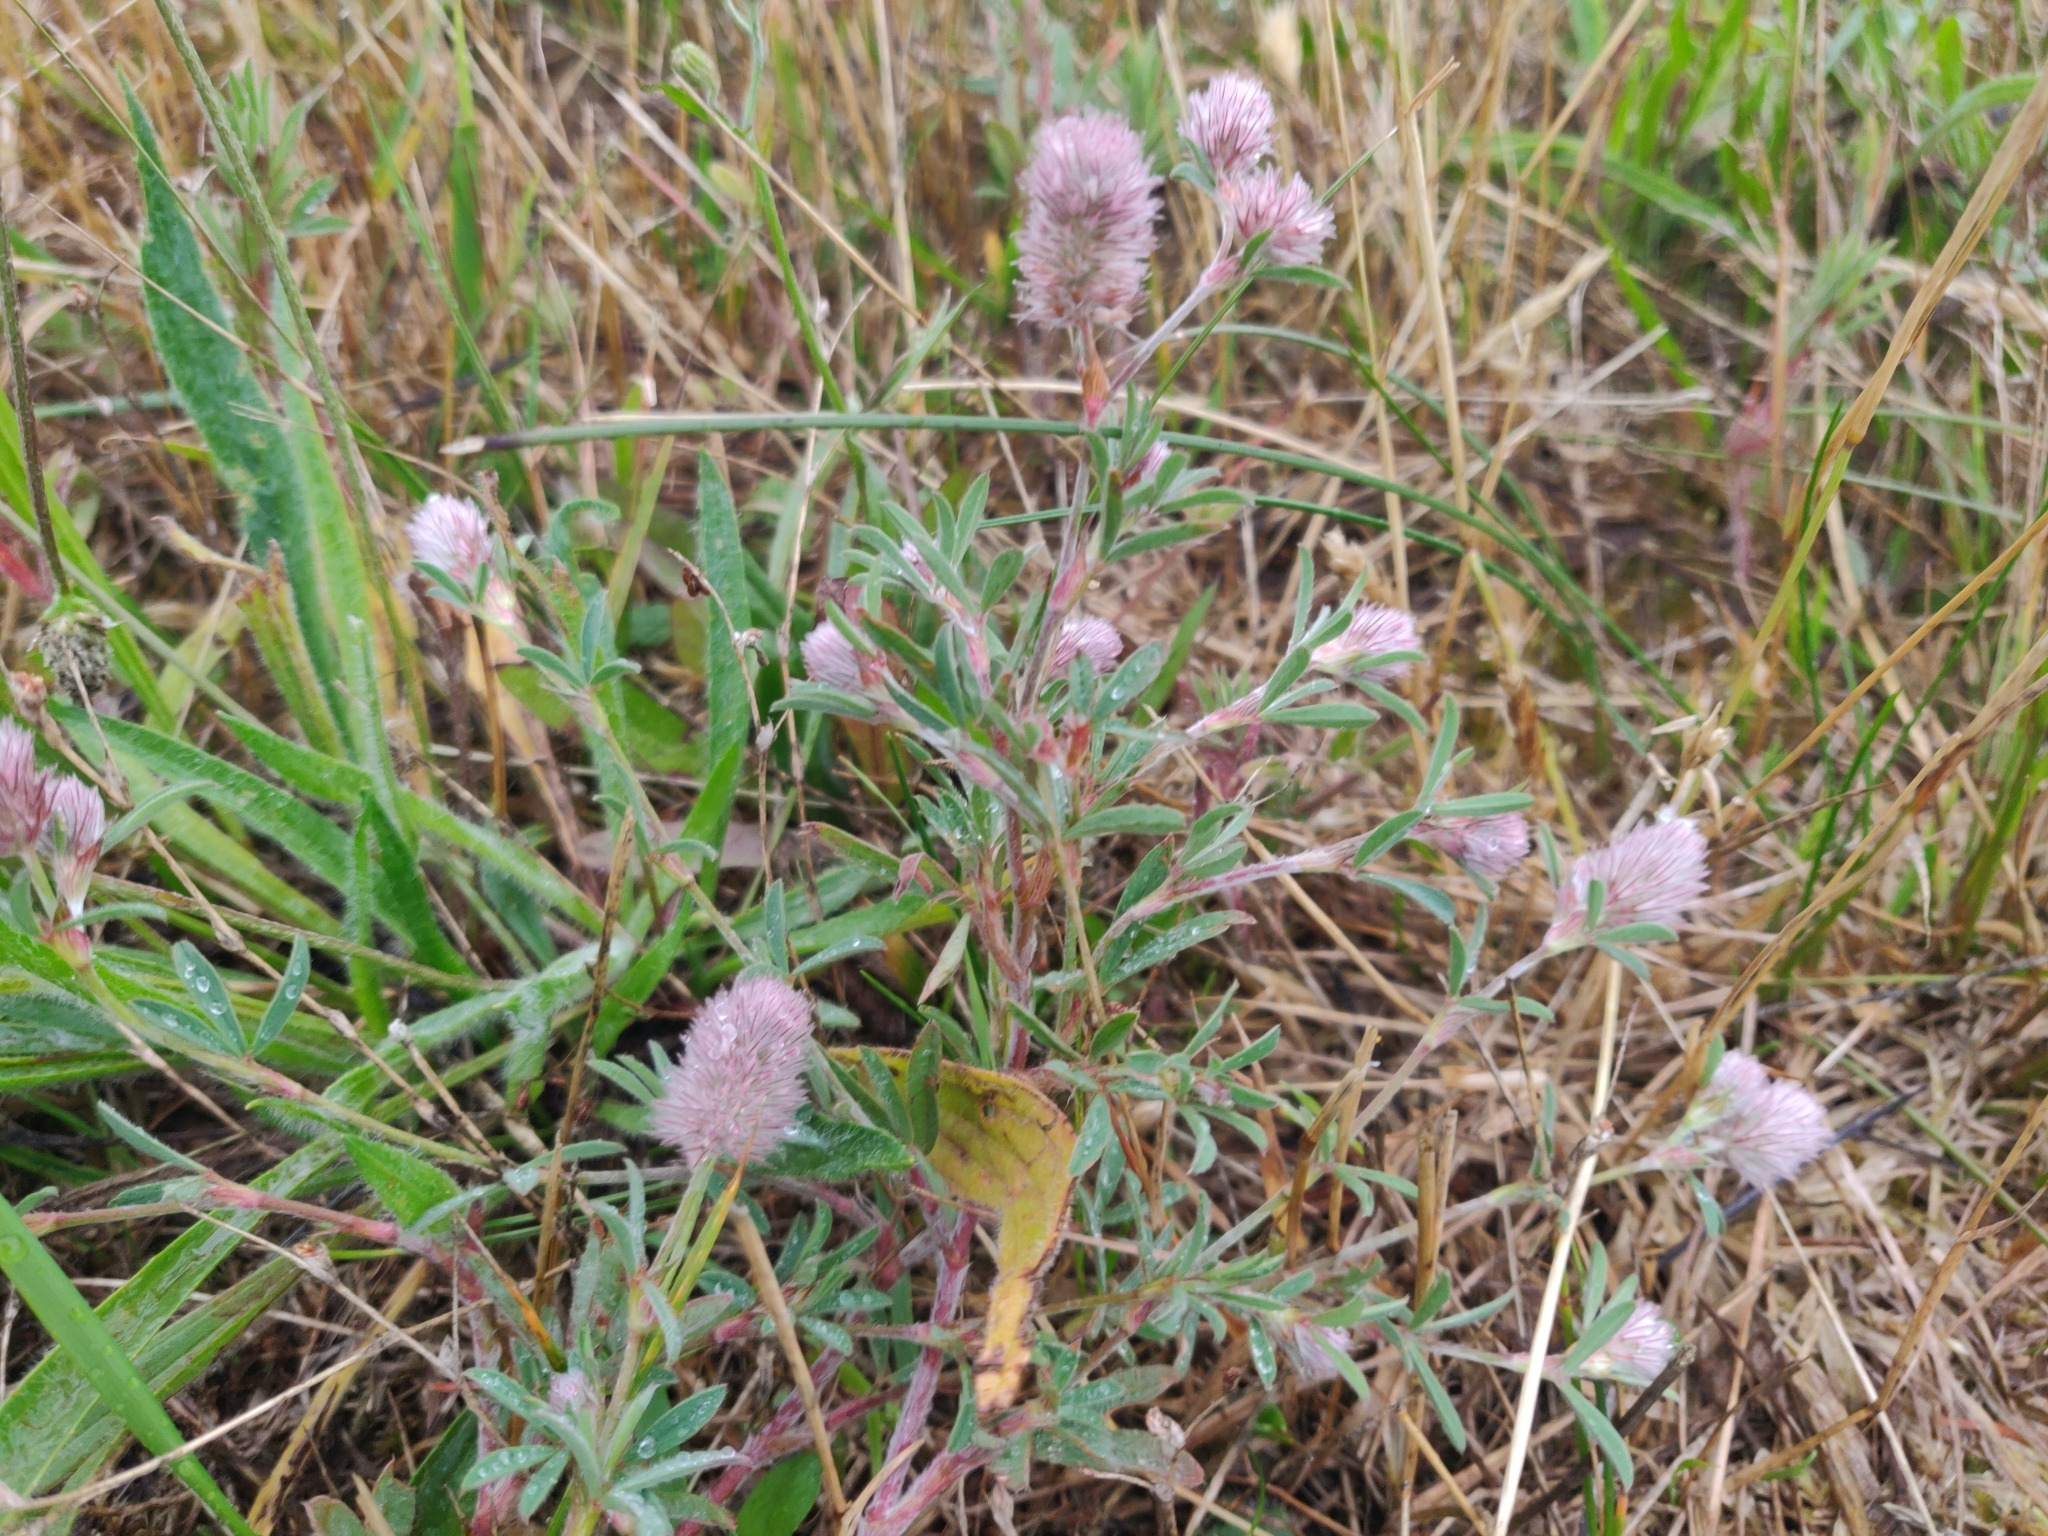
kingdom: Plantae
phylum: Tracheophyta
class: Magnoliopsida
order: Fabales
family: Fabaceae
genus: Trifolium
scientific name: Trifolium arvense
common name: Hare's-foot clover
